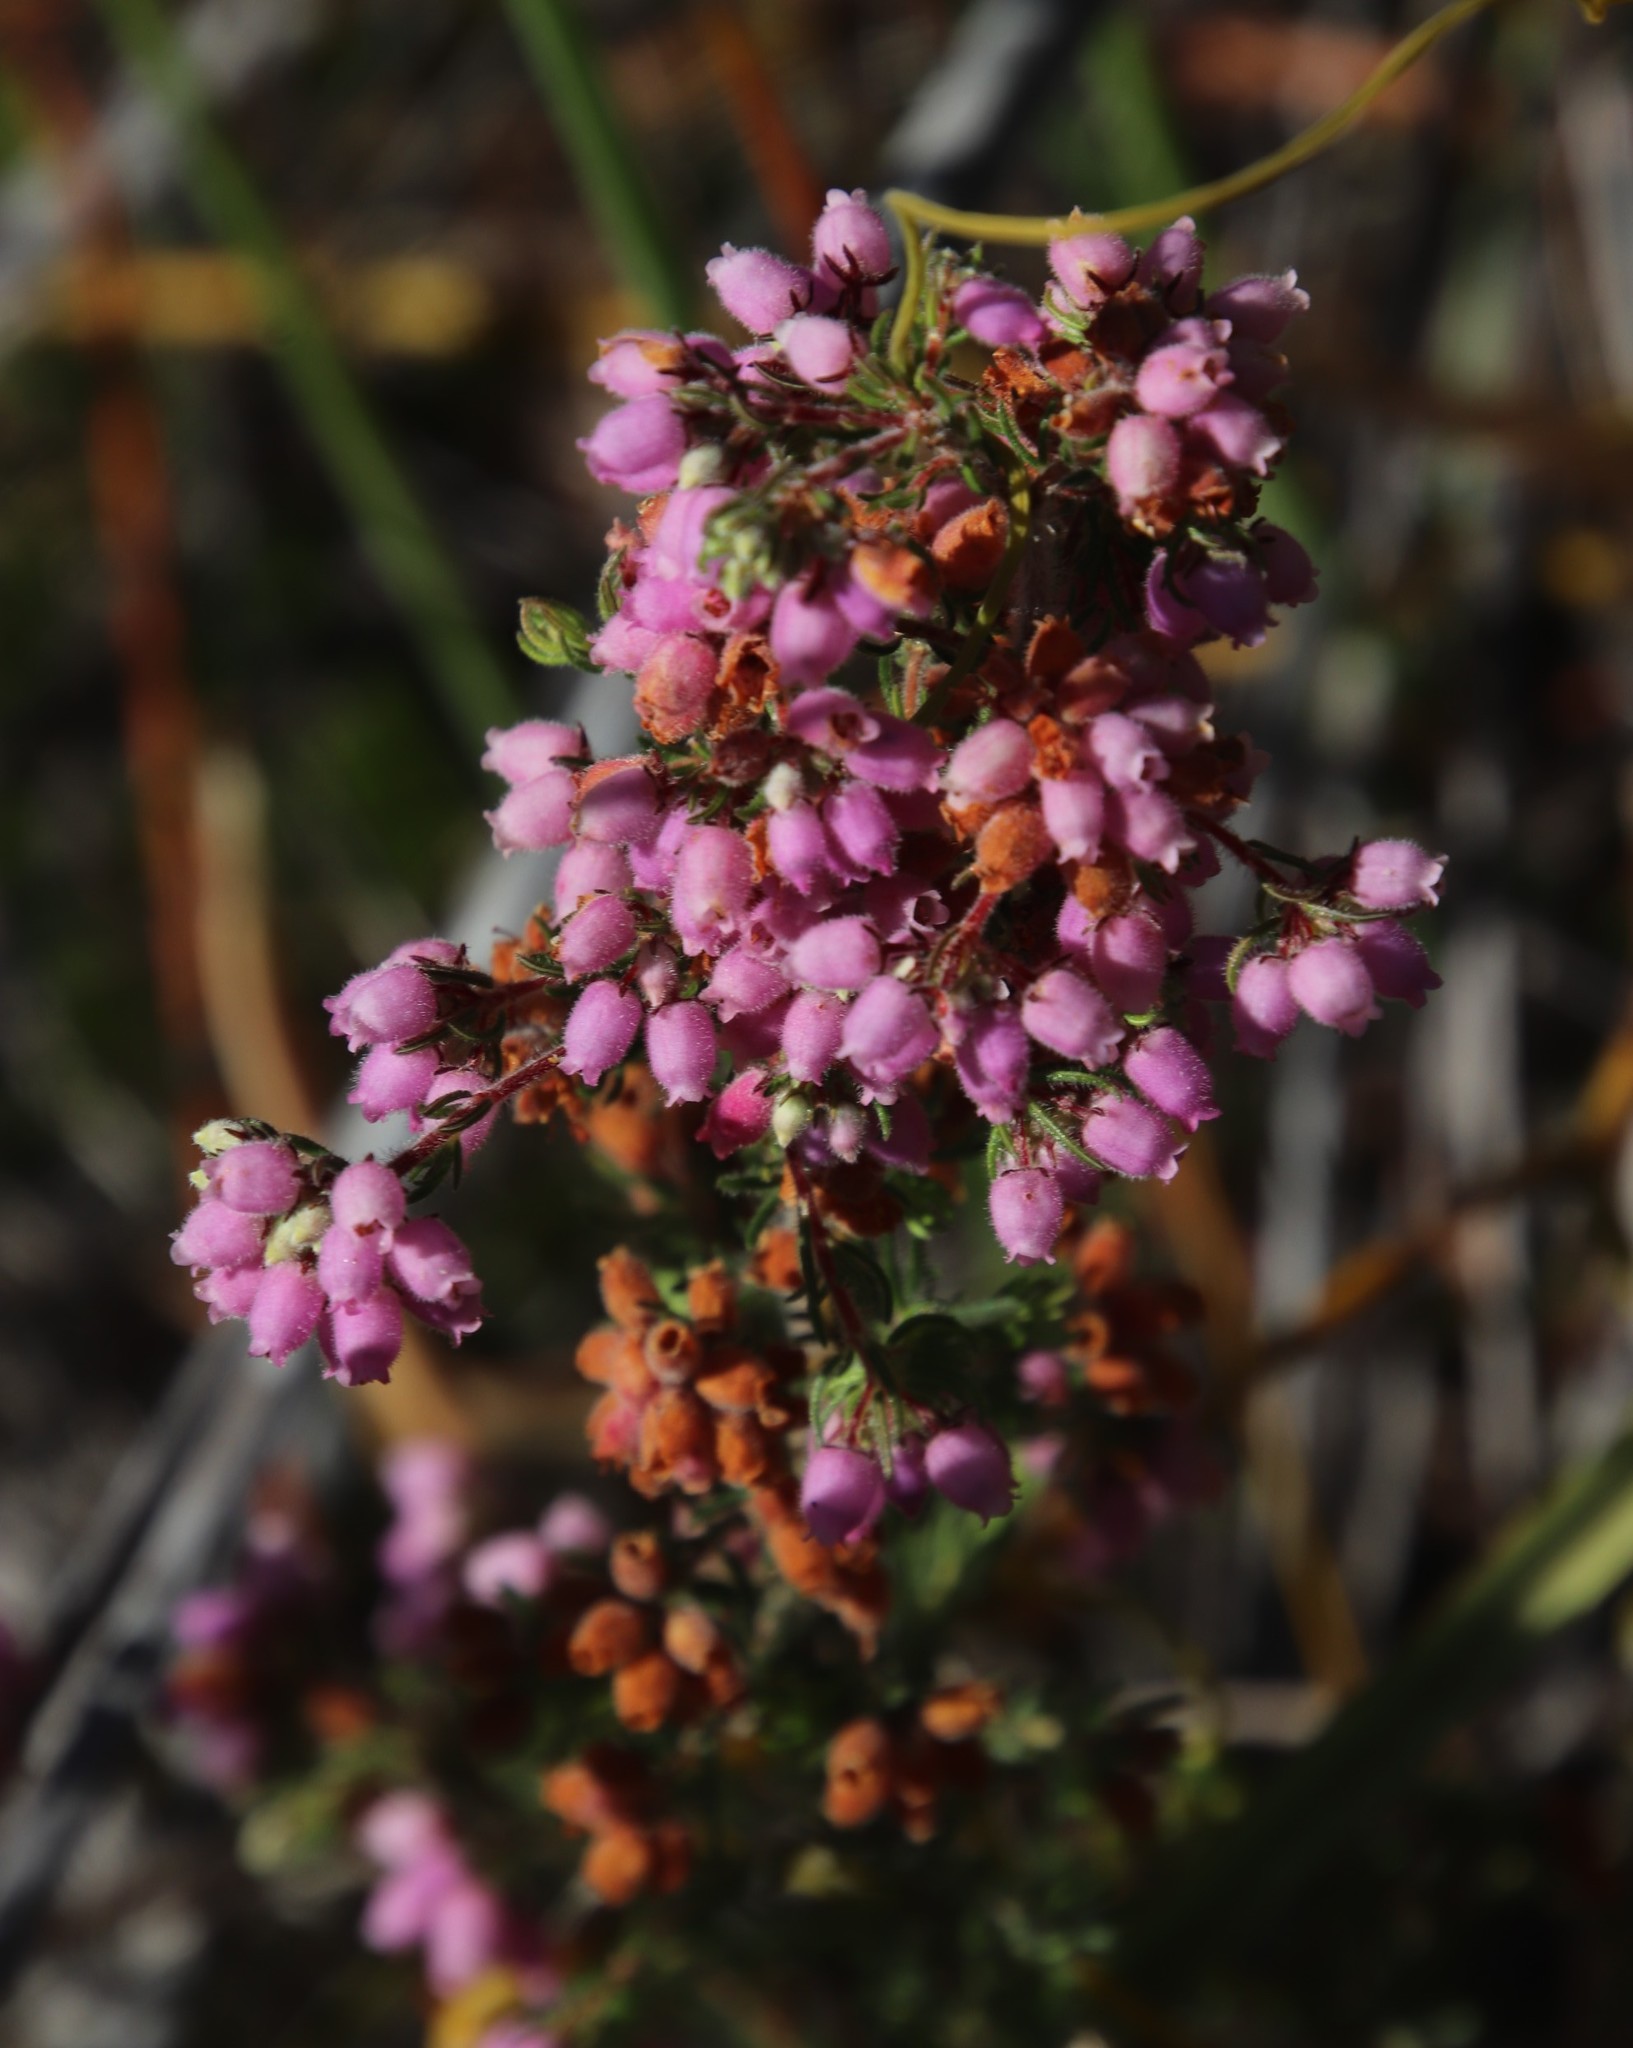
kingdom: Plantae
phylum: Tracheophyta
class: Magnoliopsida
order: Ericales
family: Ericaceae
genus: Erica
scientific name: Erica hirtiflora
